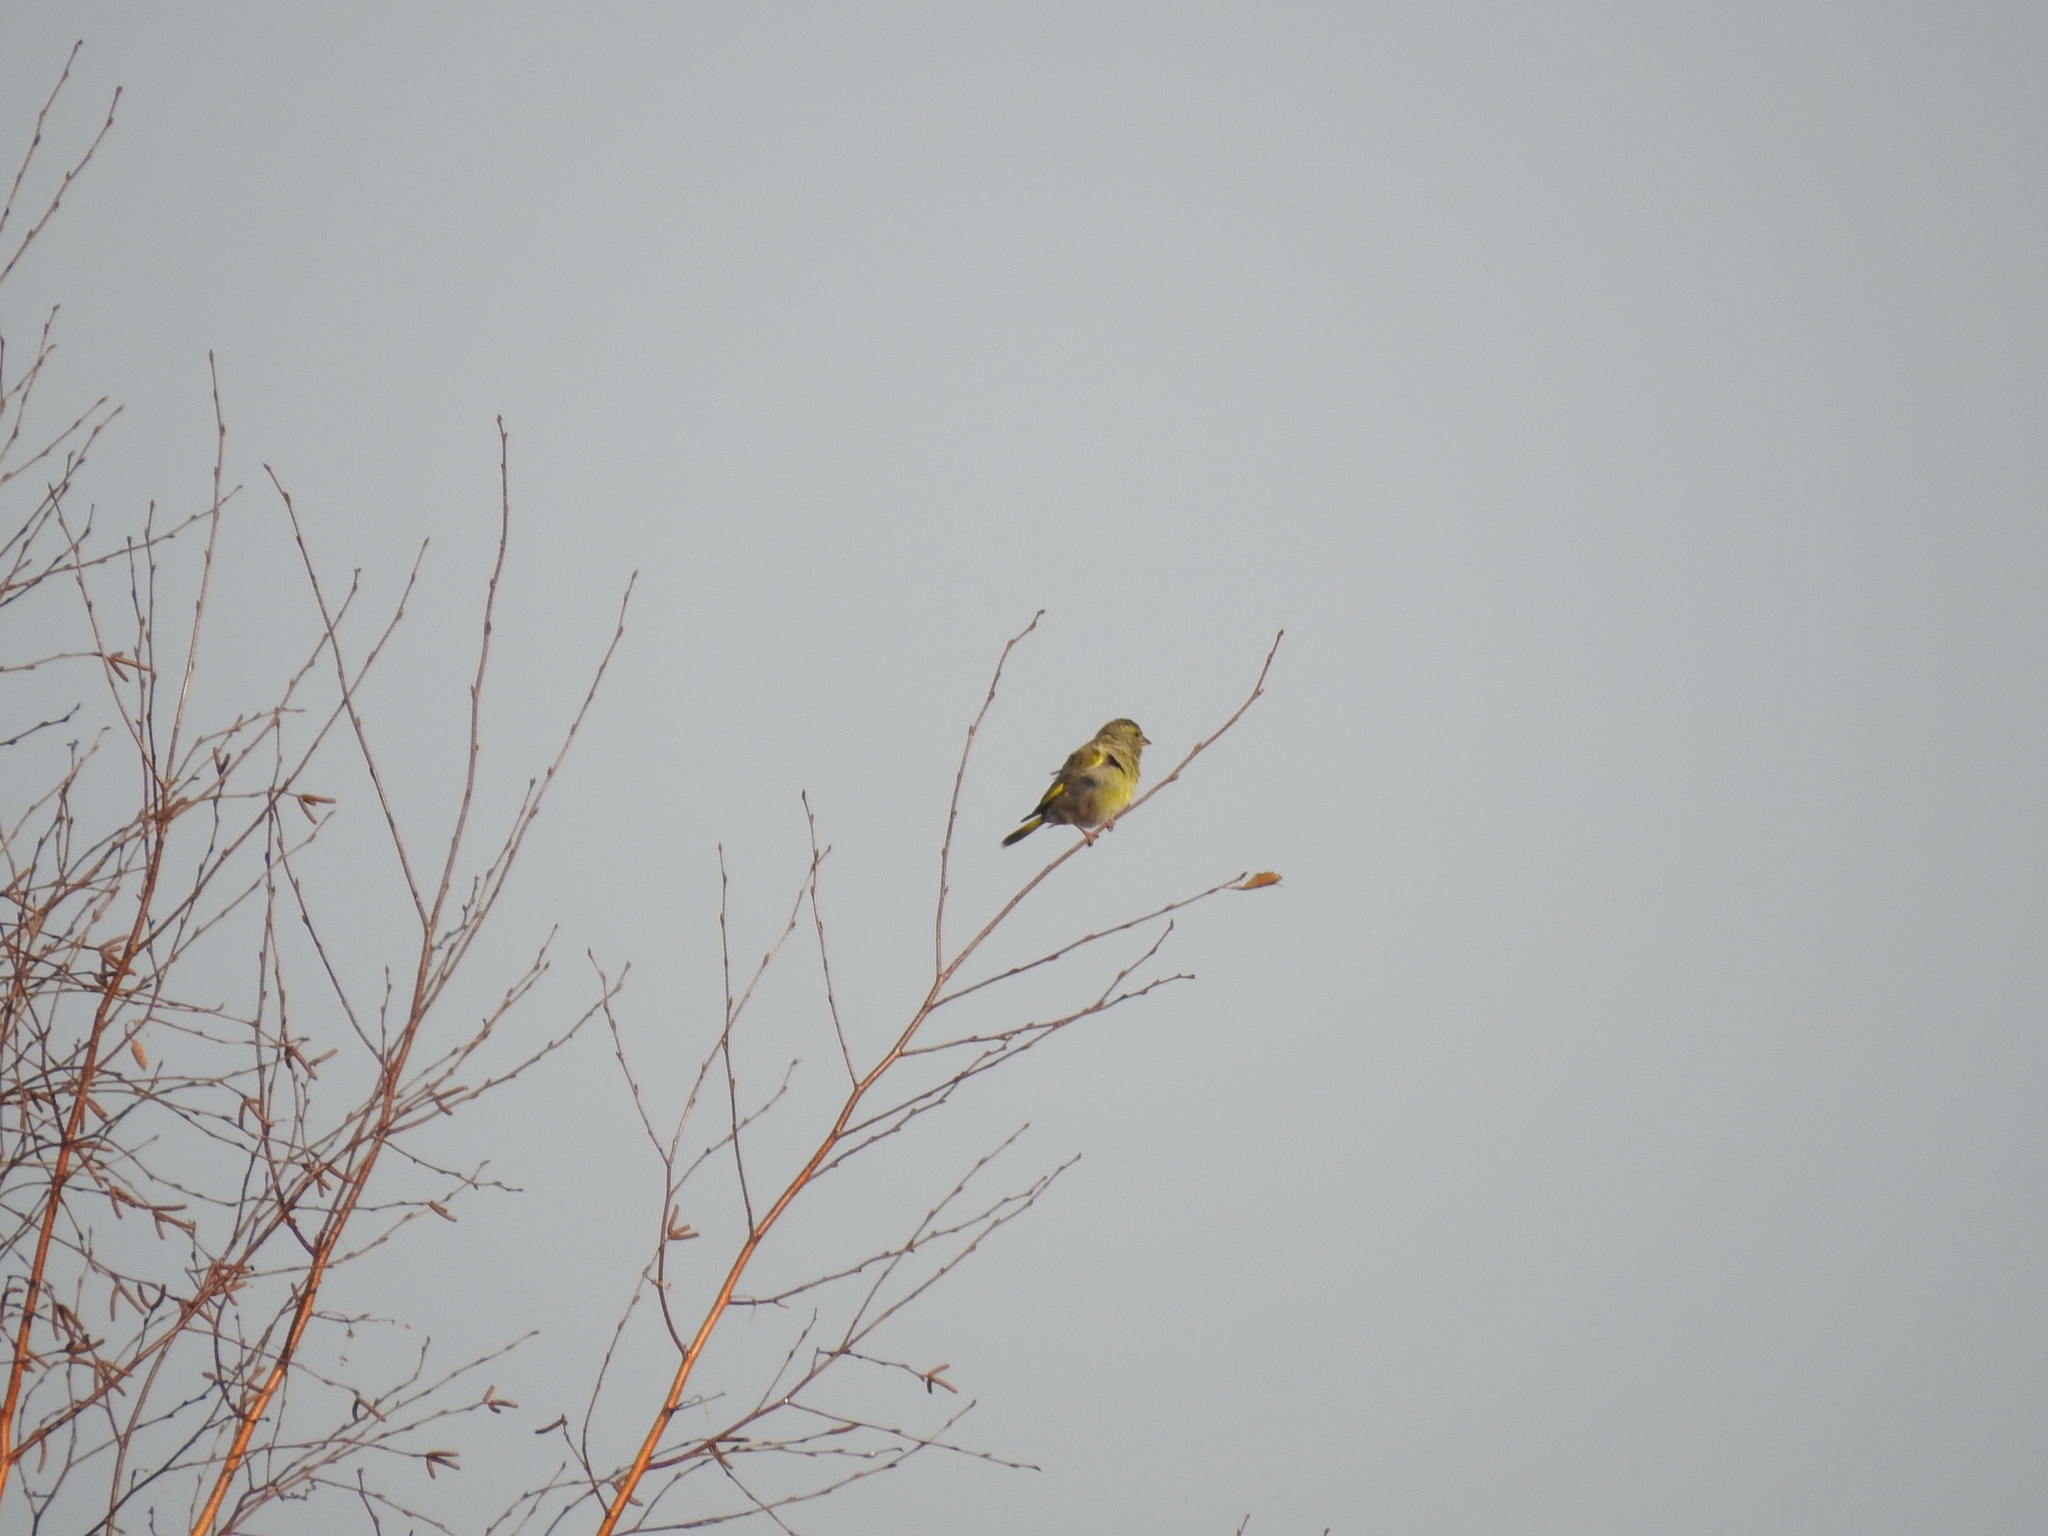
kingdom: Plantae
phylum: Tracheophyta
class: Liliopsida
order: Poales
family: Poaceae
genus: Chloris
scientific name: Chloris chloris
